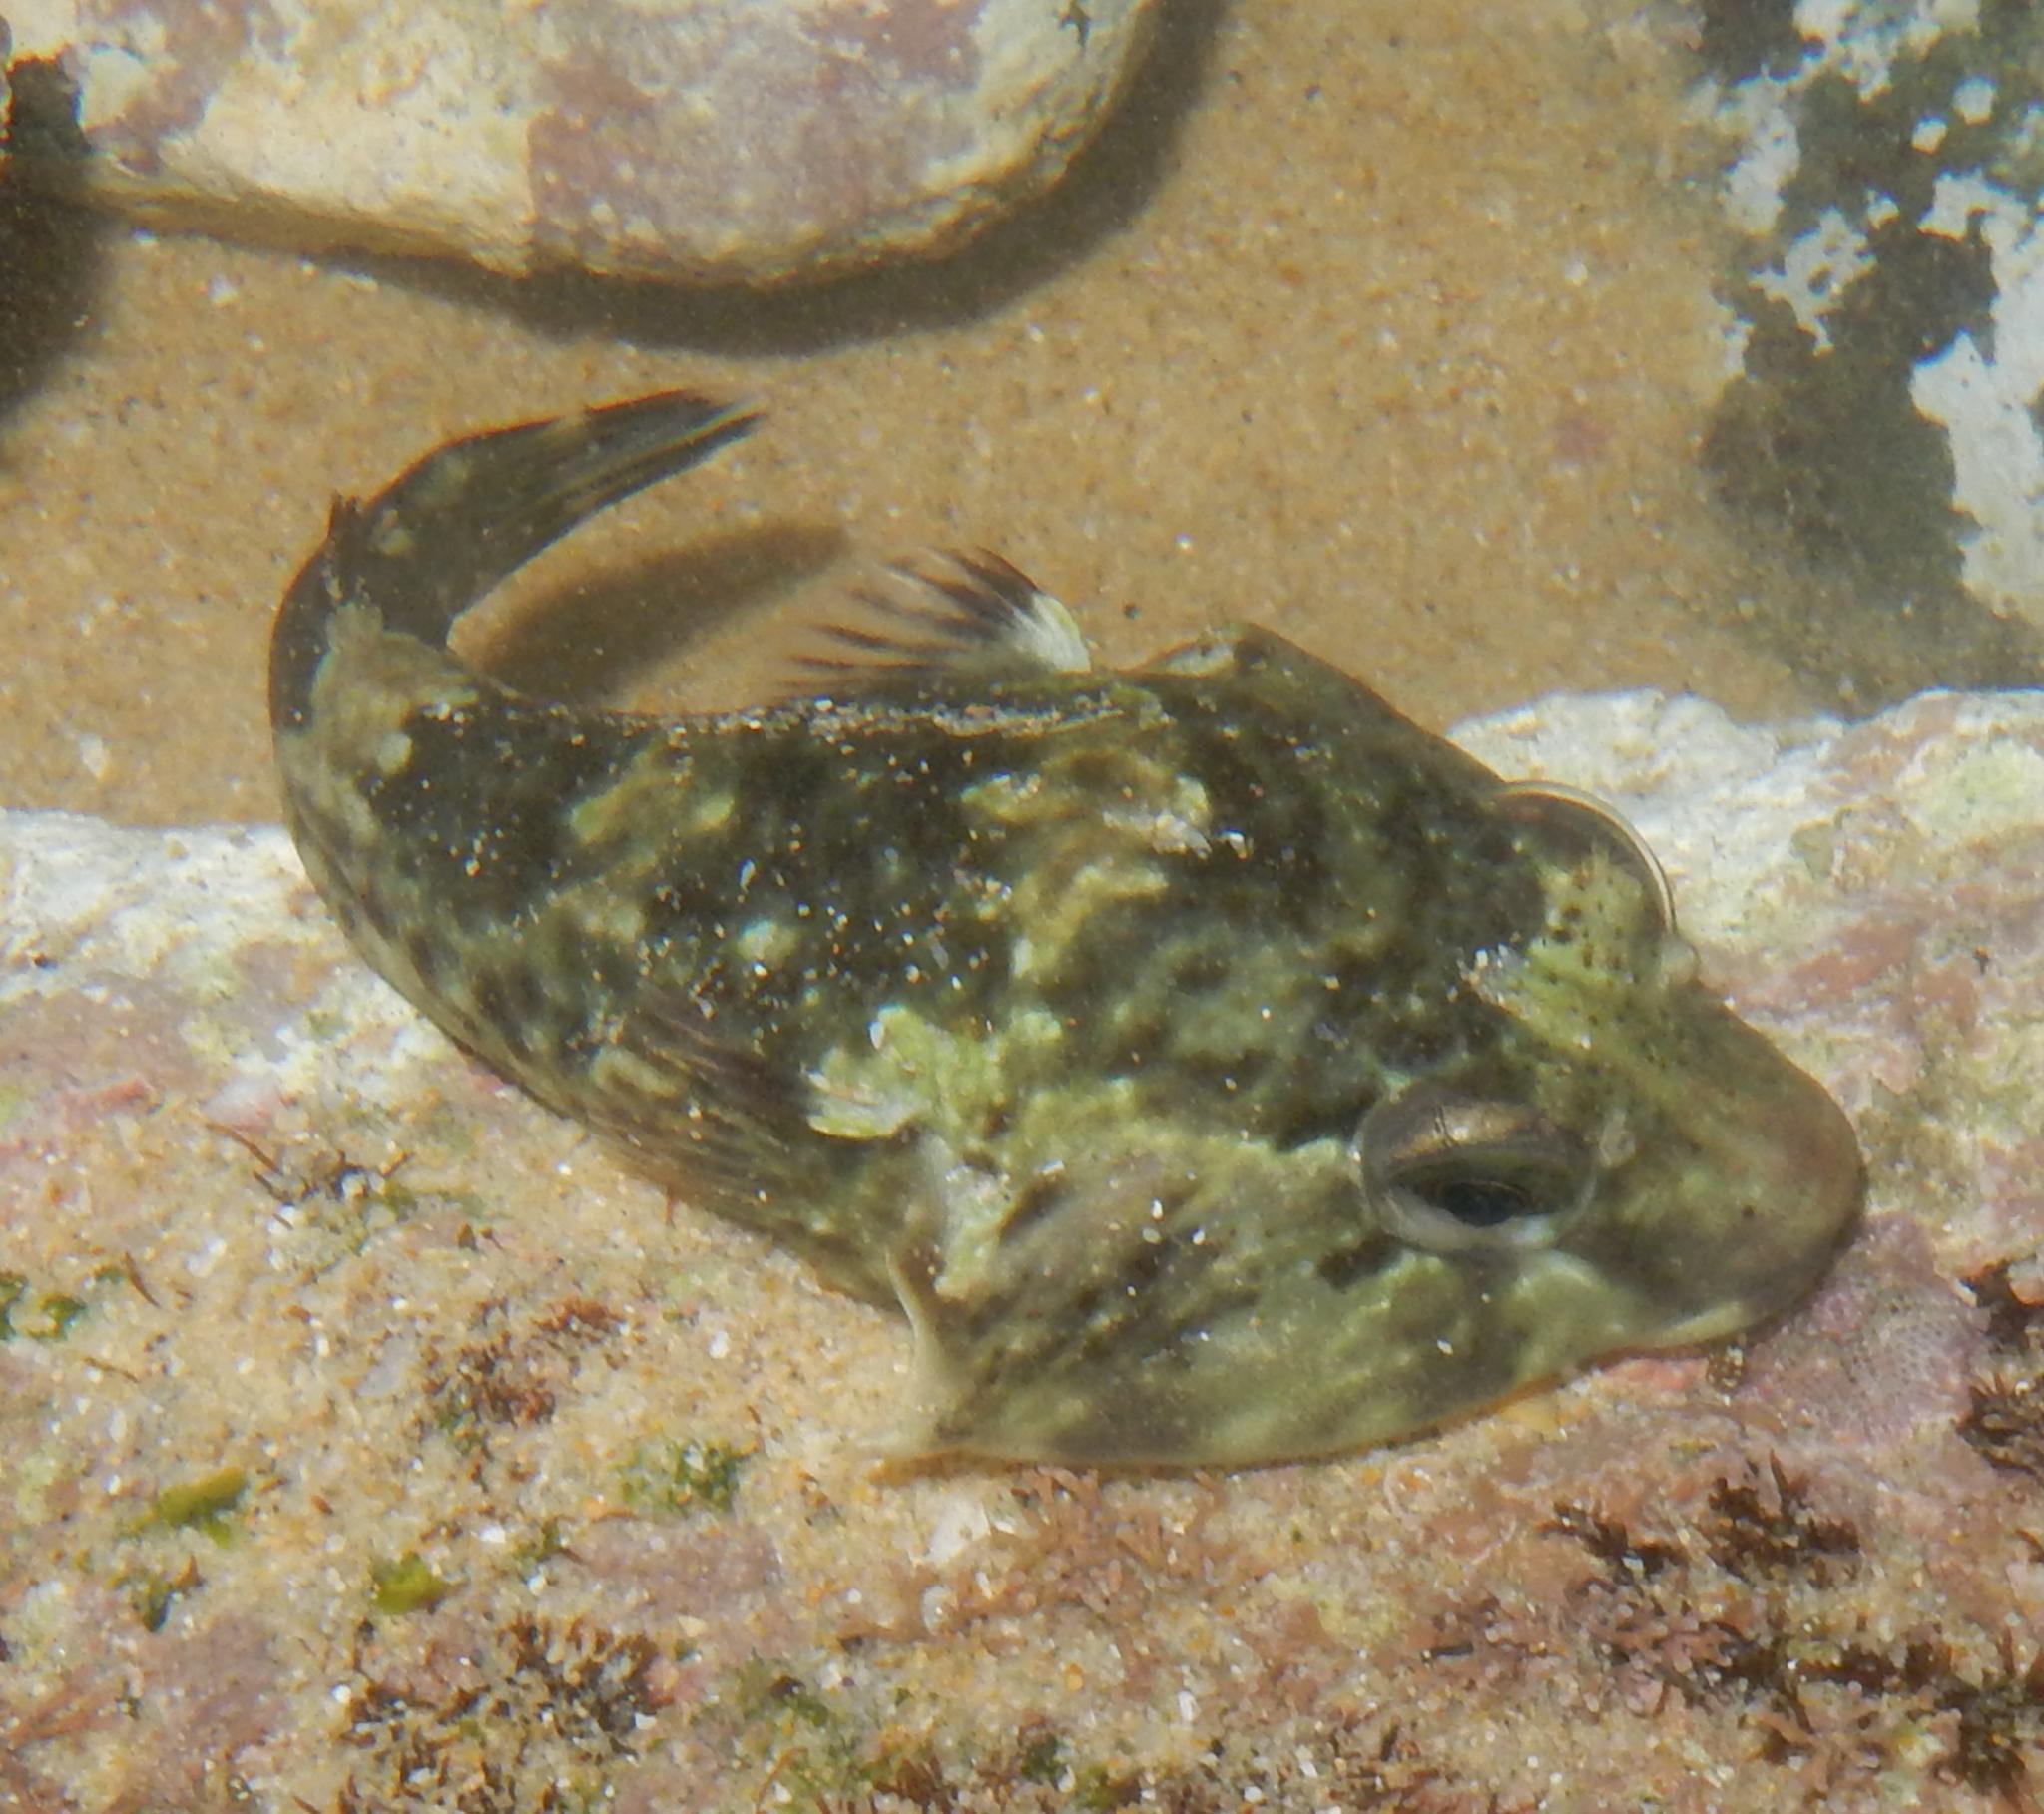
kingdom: Animalia
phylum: Chordata
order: Gobiesociformes
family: Gobiesocidae
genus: Chorisochismus
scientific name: Chorisochismus dentex
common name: Rocksucker
